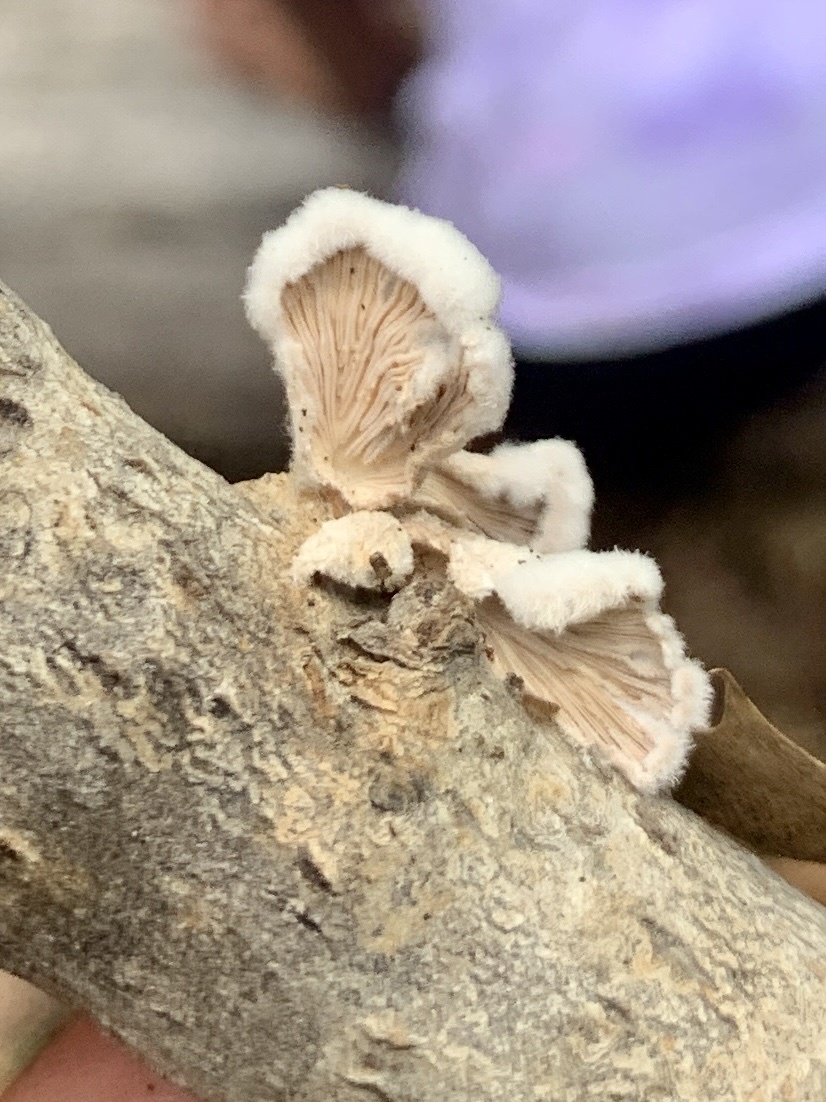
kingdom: Fungi
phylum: Basidiomycota
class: Agaricomycetes
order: Agaricales
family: Schizophyllaceae
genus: Schizophyllum
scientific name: Schizophyllum commune
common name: Common porecrust
